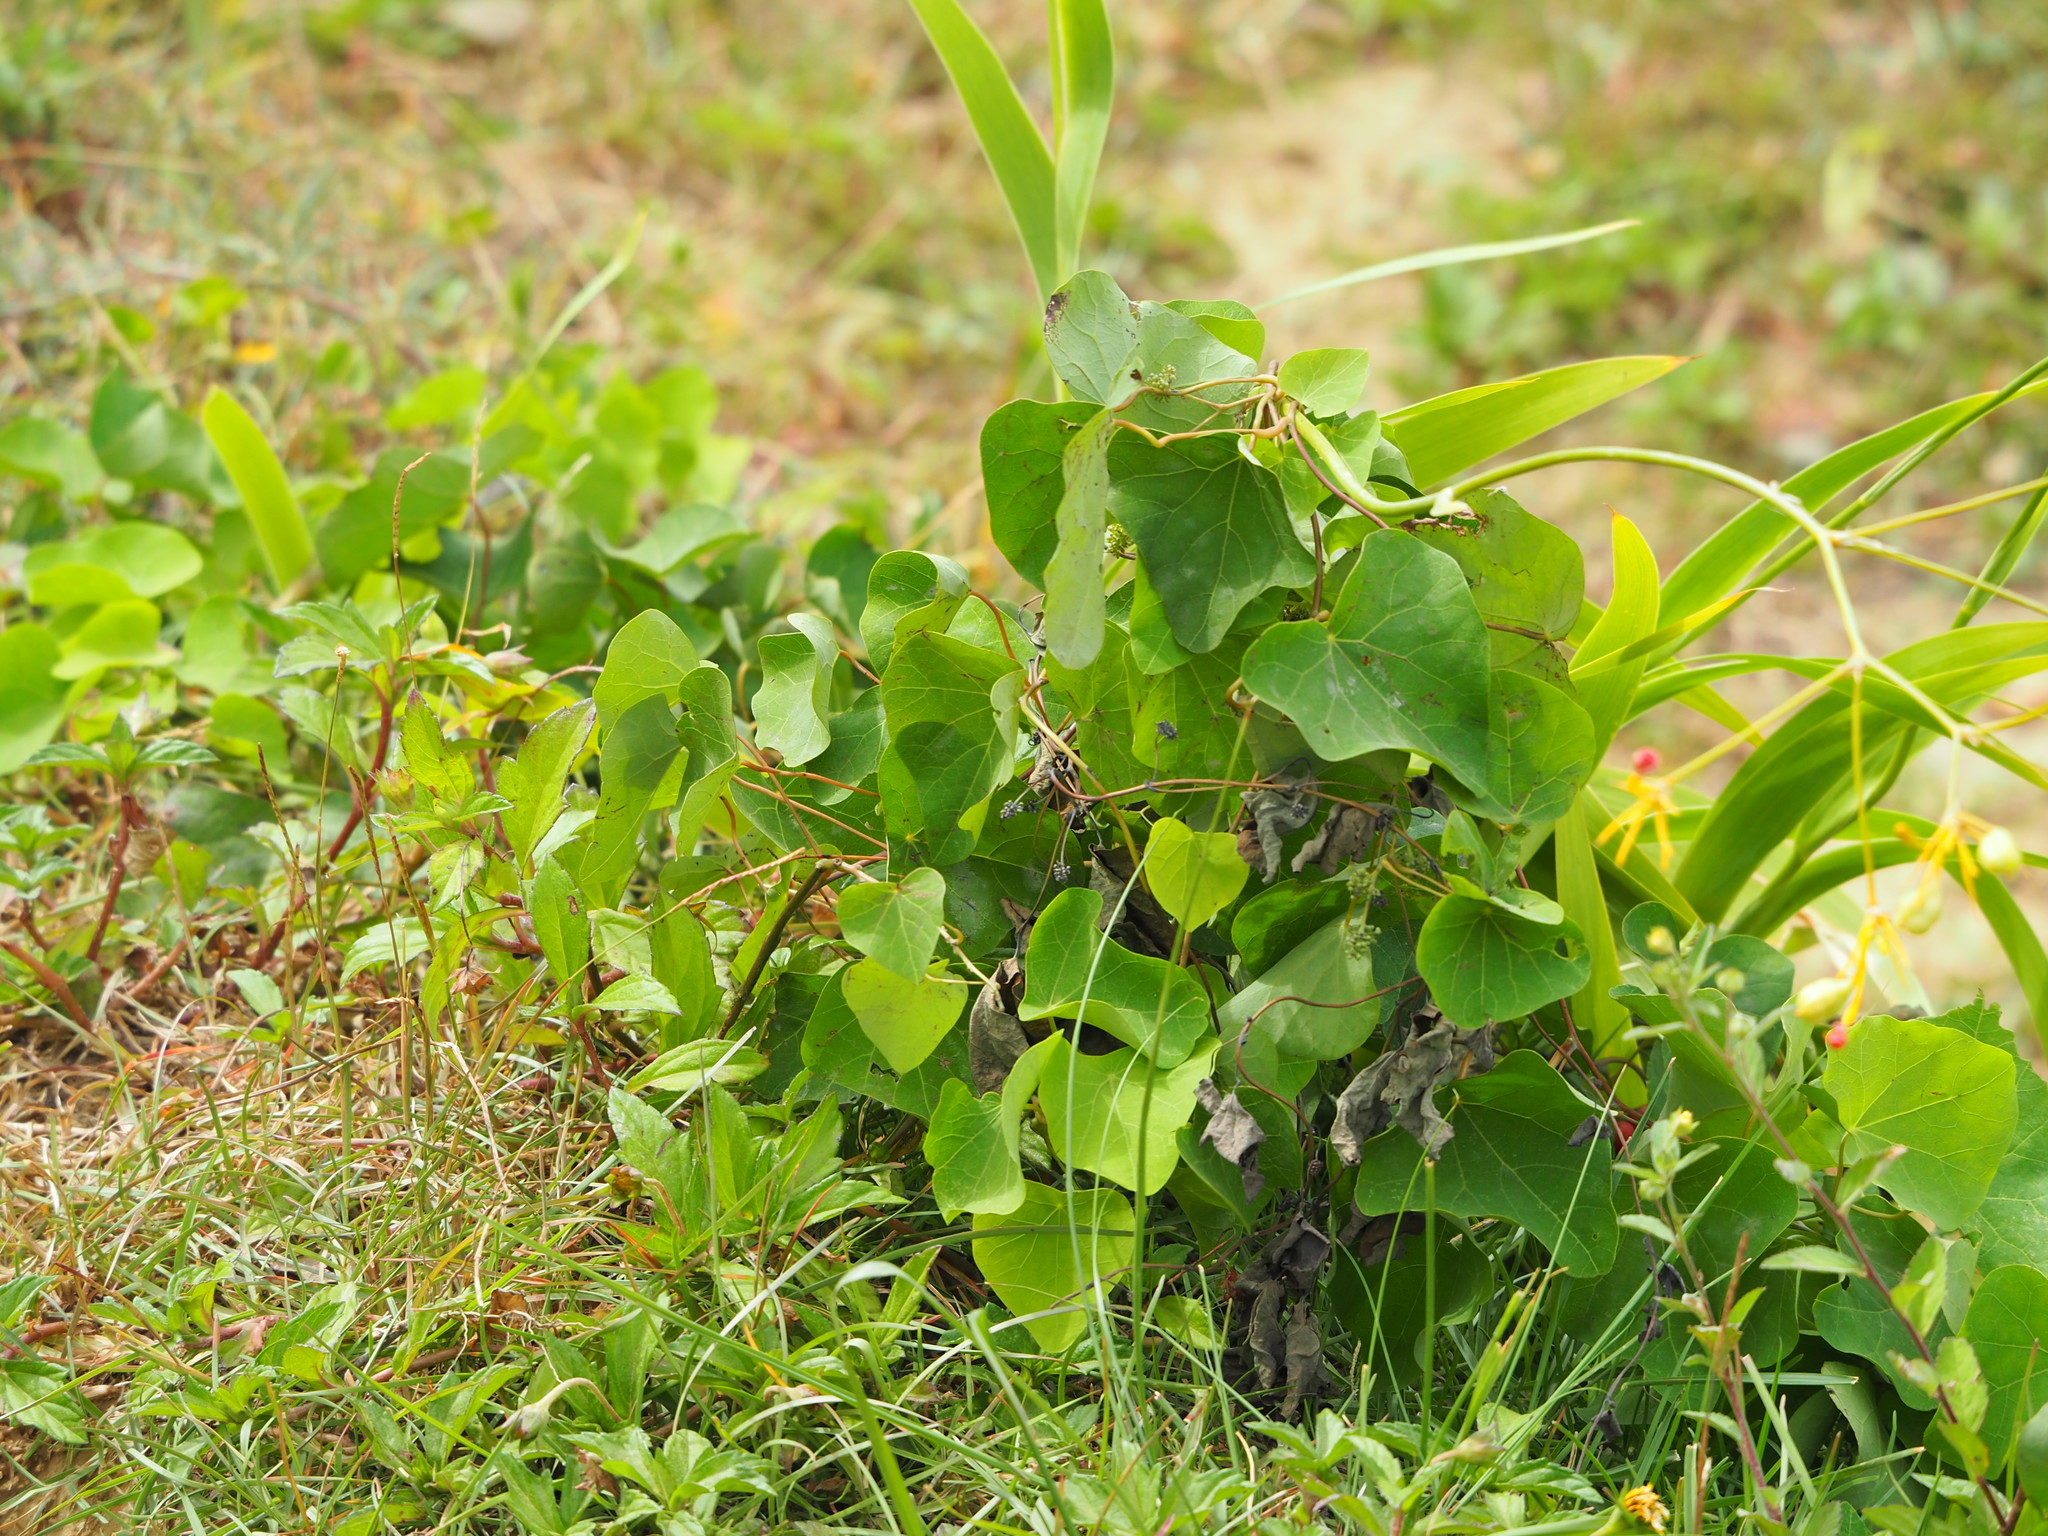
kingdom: Plantae
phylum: Tracheophyta
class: Magnoliopsida
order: Ranunculales
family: Menispermaceae
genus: Stephania
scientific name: Stephania japonica
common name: Snake vine
